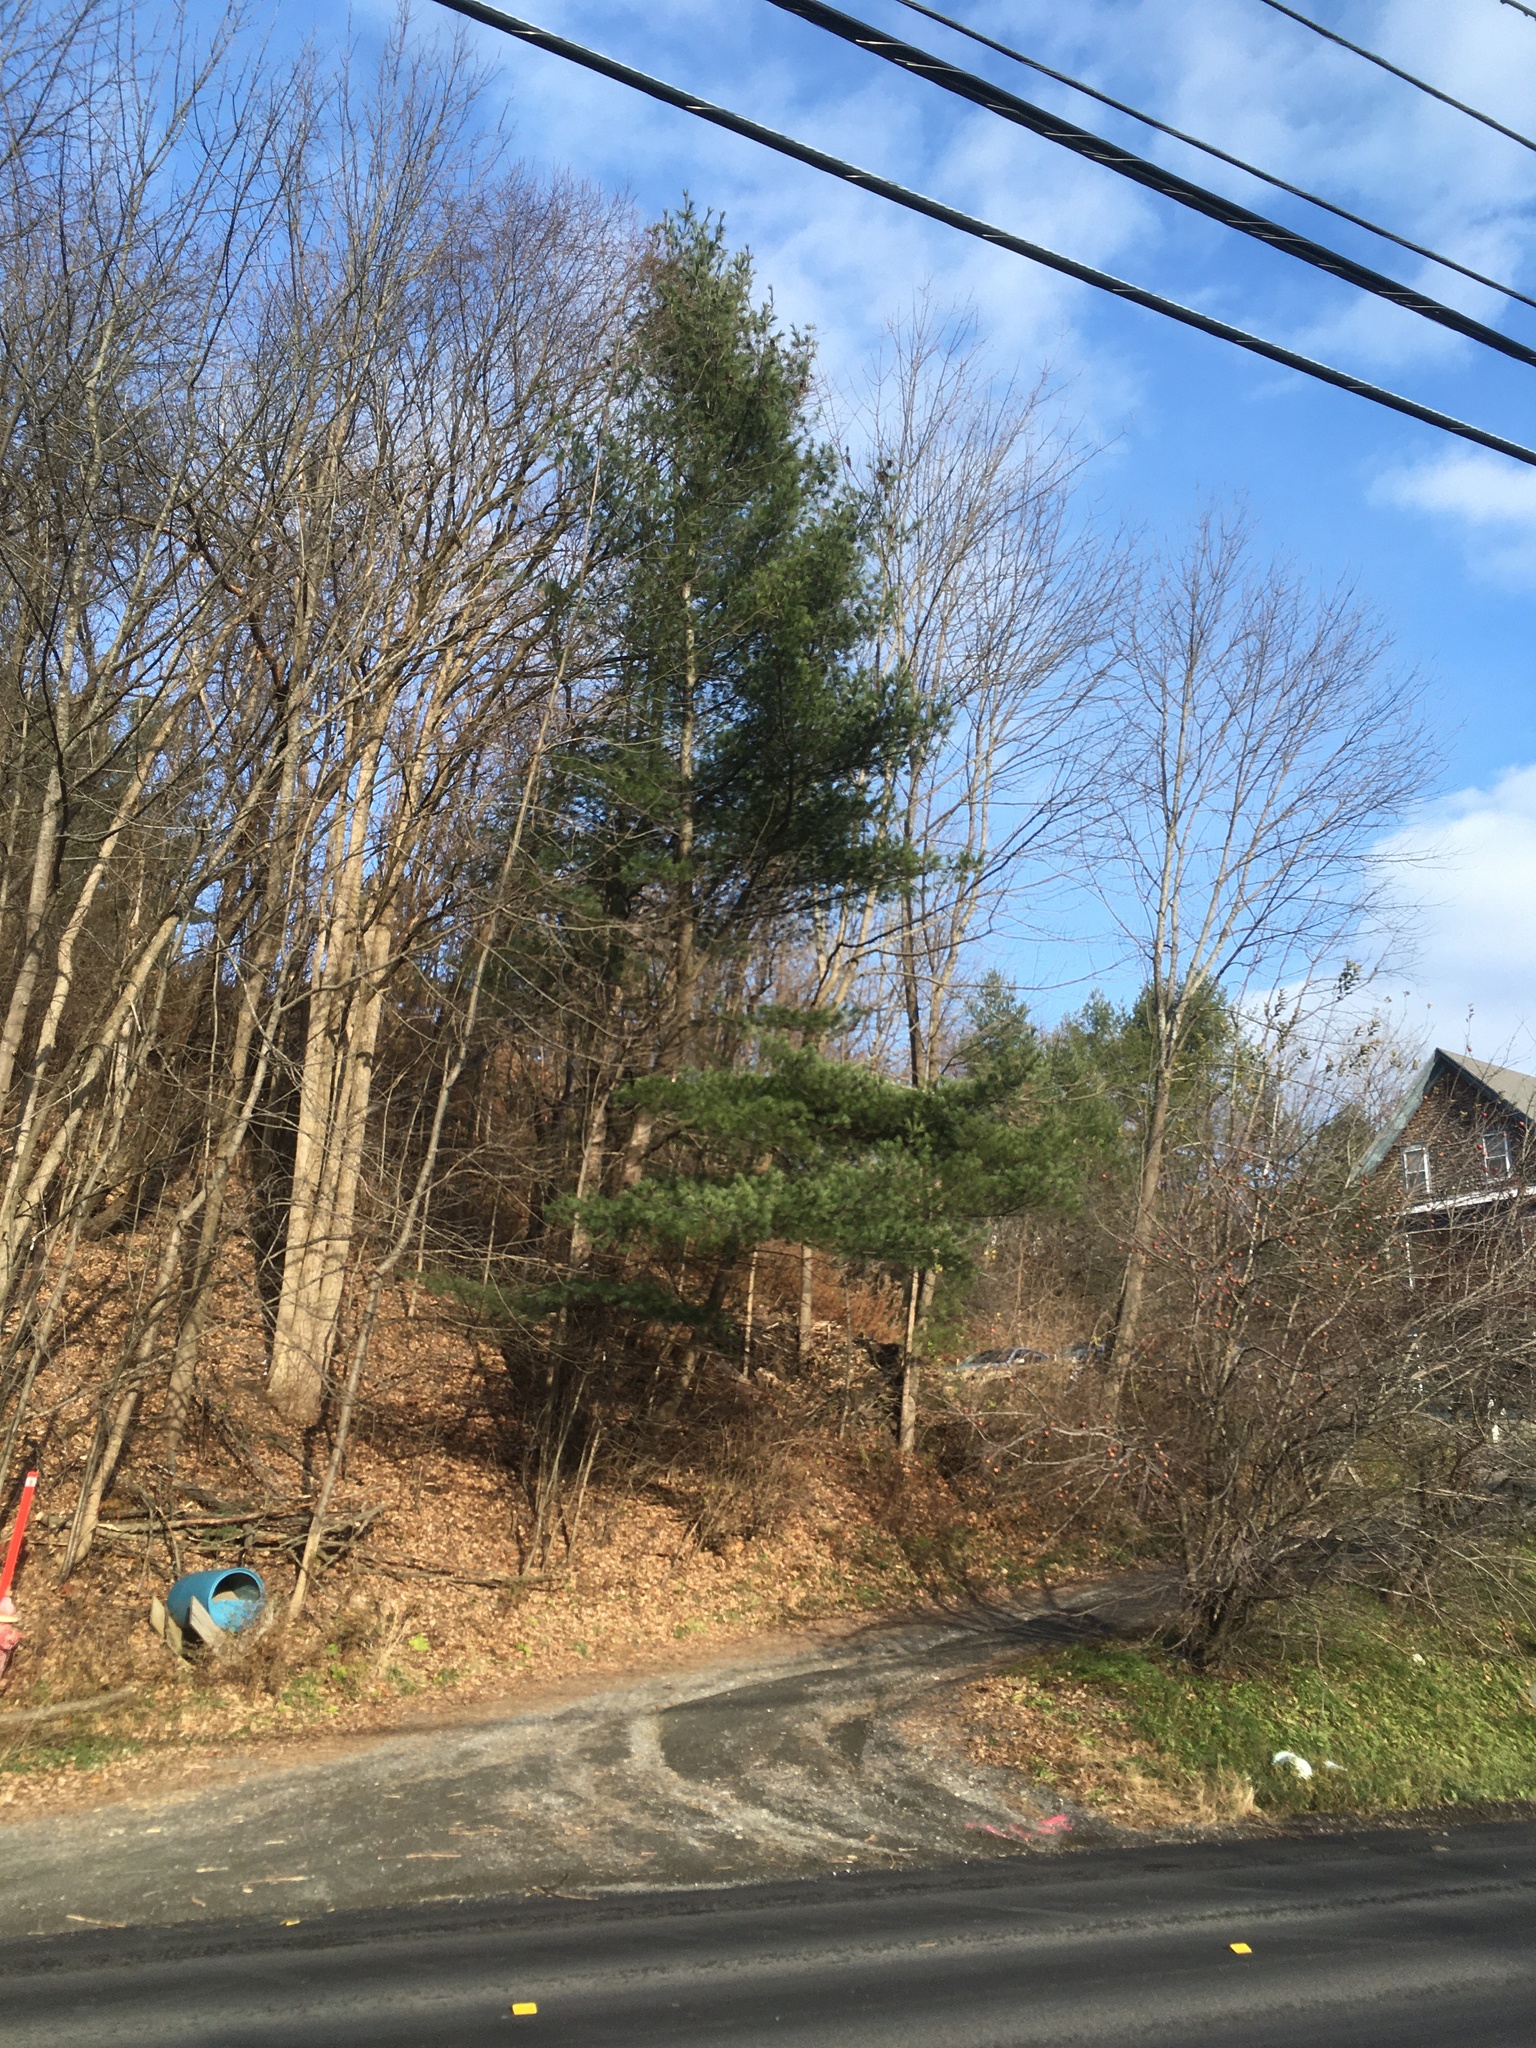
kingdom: Plantae
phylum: Tracheophyta
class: Pinopsida
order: Pinales
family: Pinaceae
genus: Pinus
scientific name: Pinus strobus
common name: Weymouth pine
